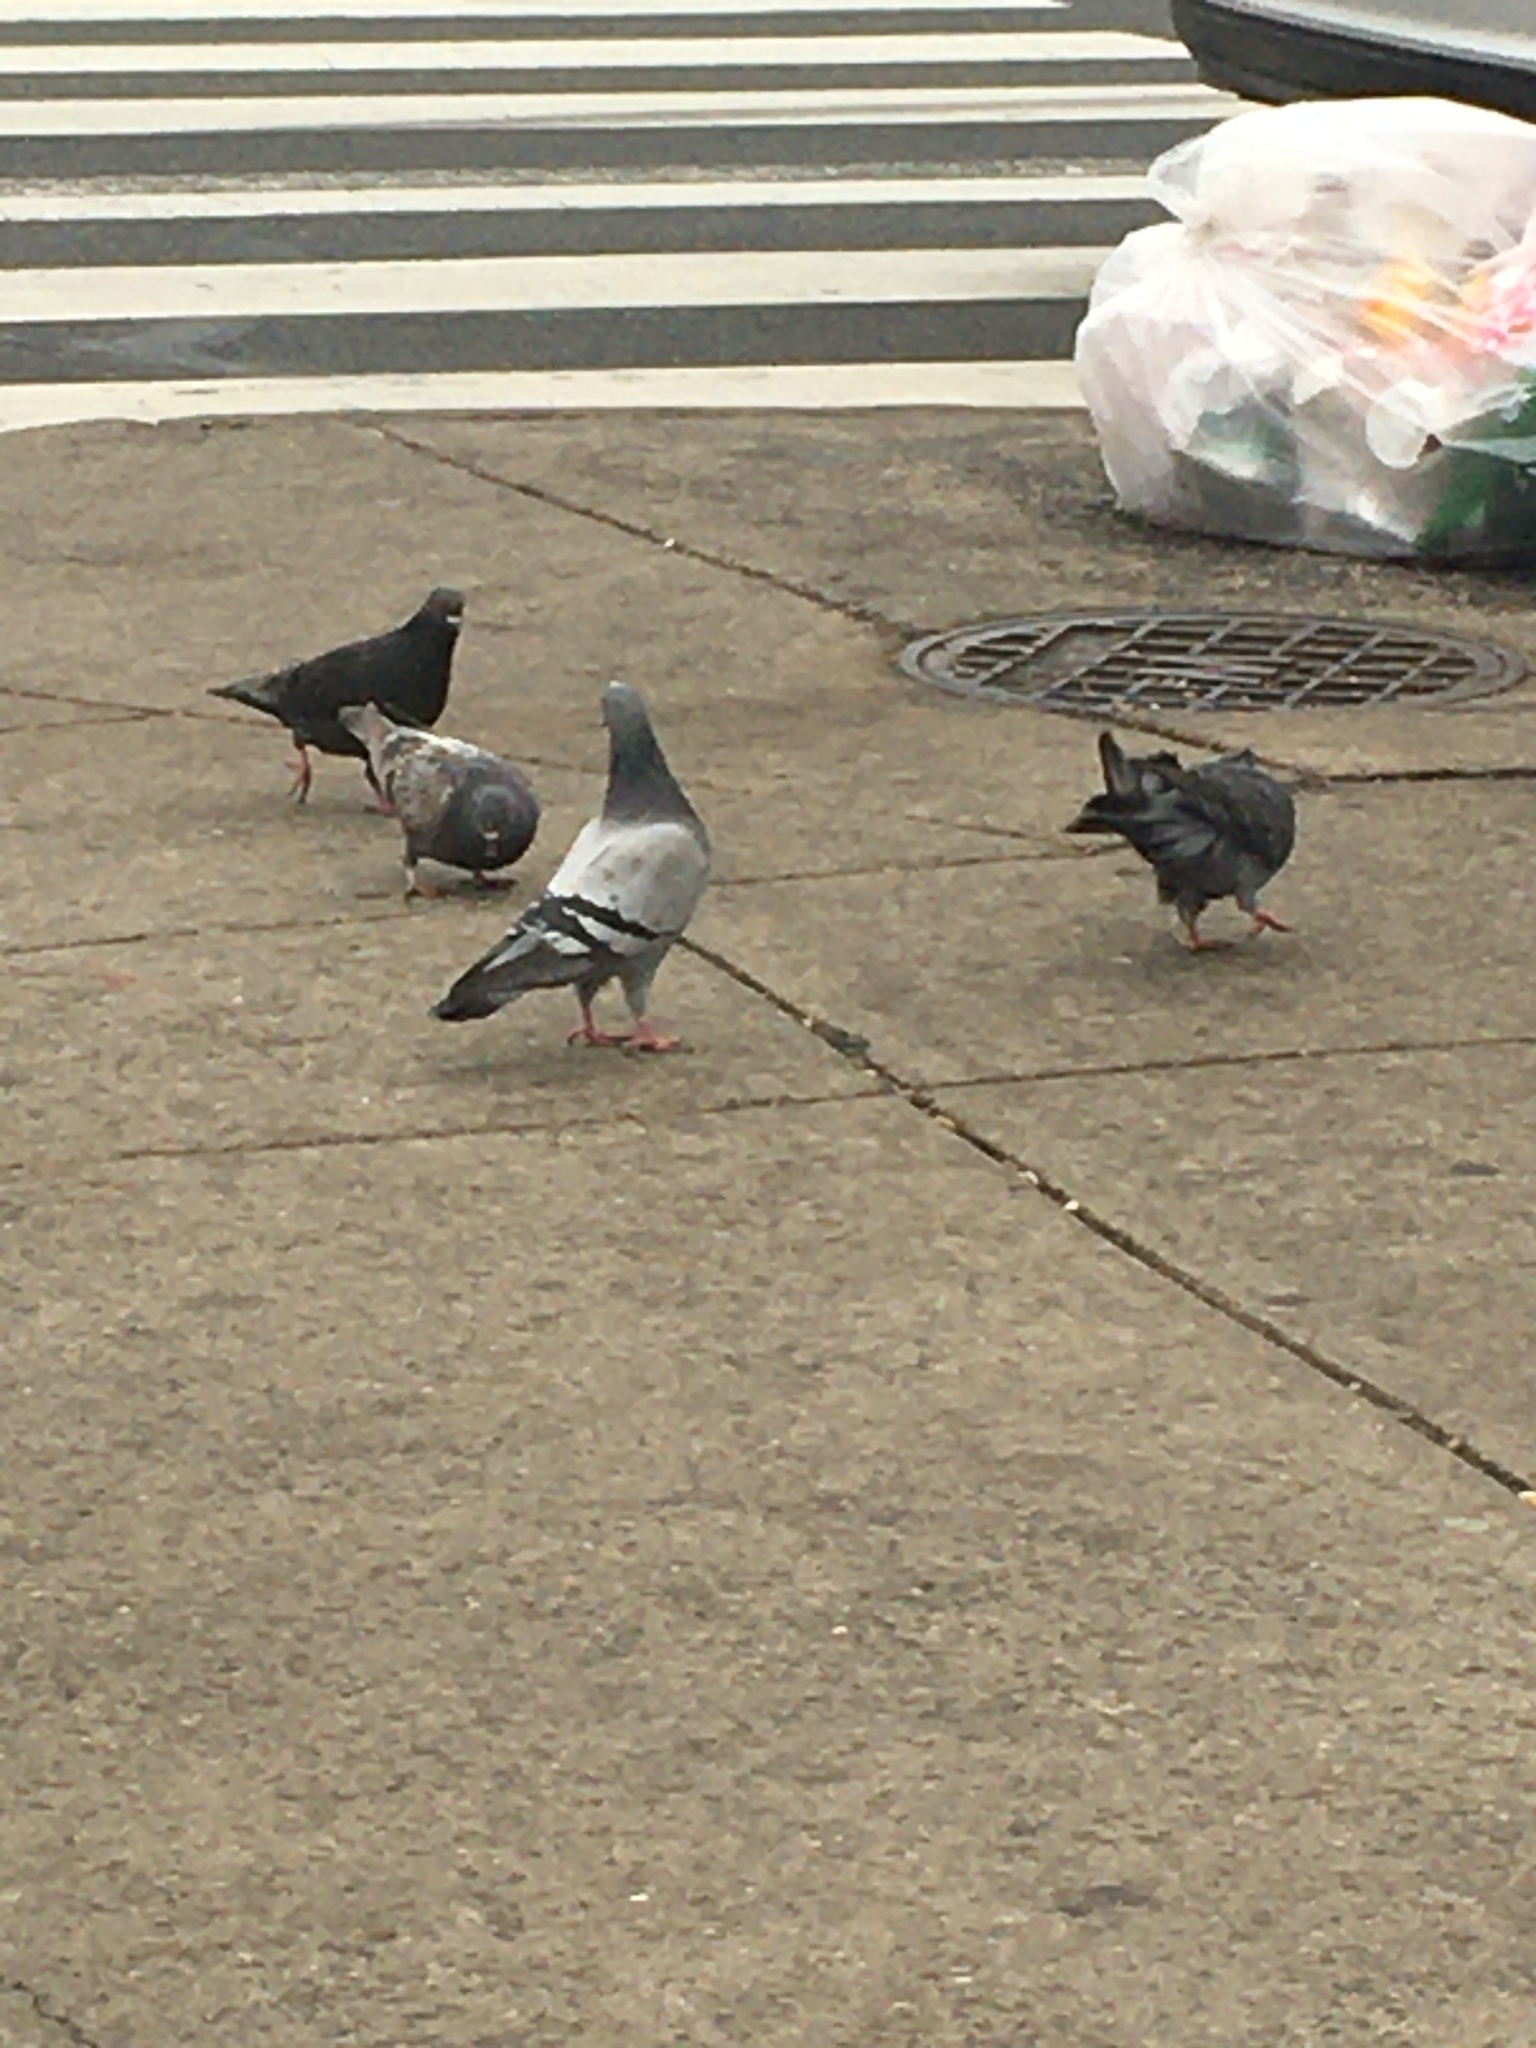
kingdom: Animalia
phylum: Chordata
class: Aves
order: Columbiformes
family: Columbidae
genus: Columba
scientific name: Columba livia
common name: Rock pigeon
